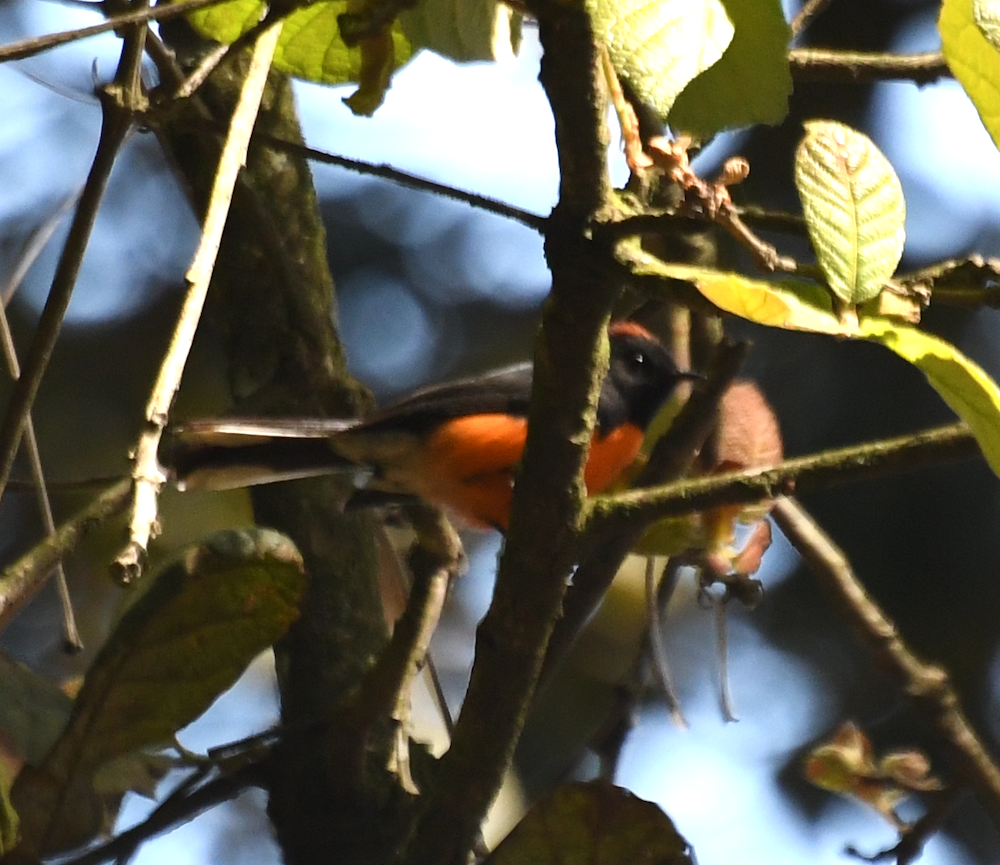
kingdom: Animalia
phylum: Chordata
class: Aves
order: Passeriformes
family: Parulidae
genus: Myioborus
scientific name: Myioborus miniatus
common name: Slate-throated redstart
